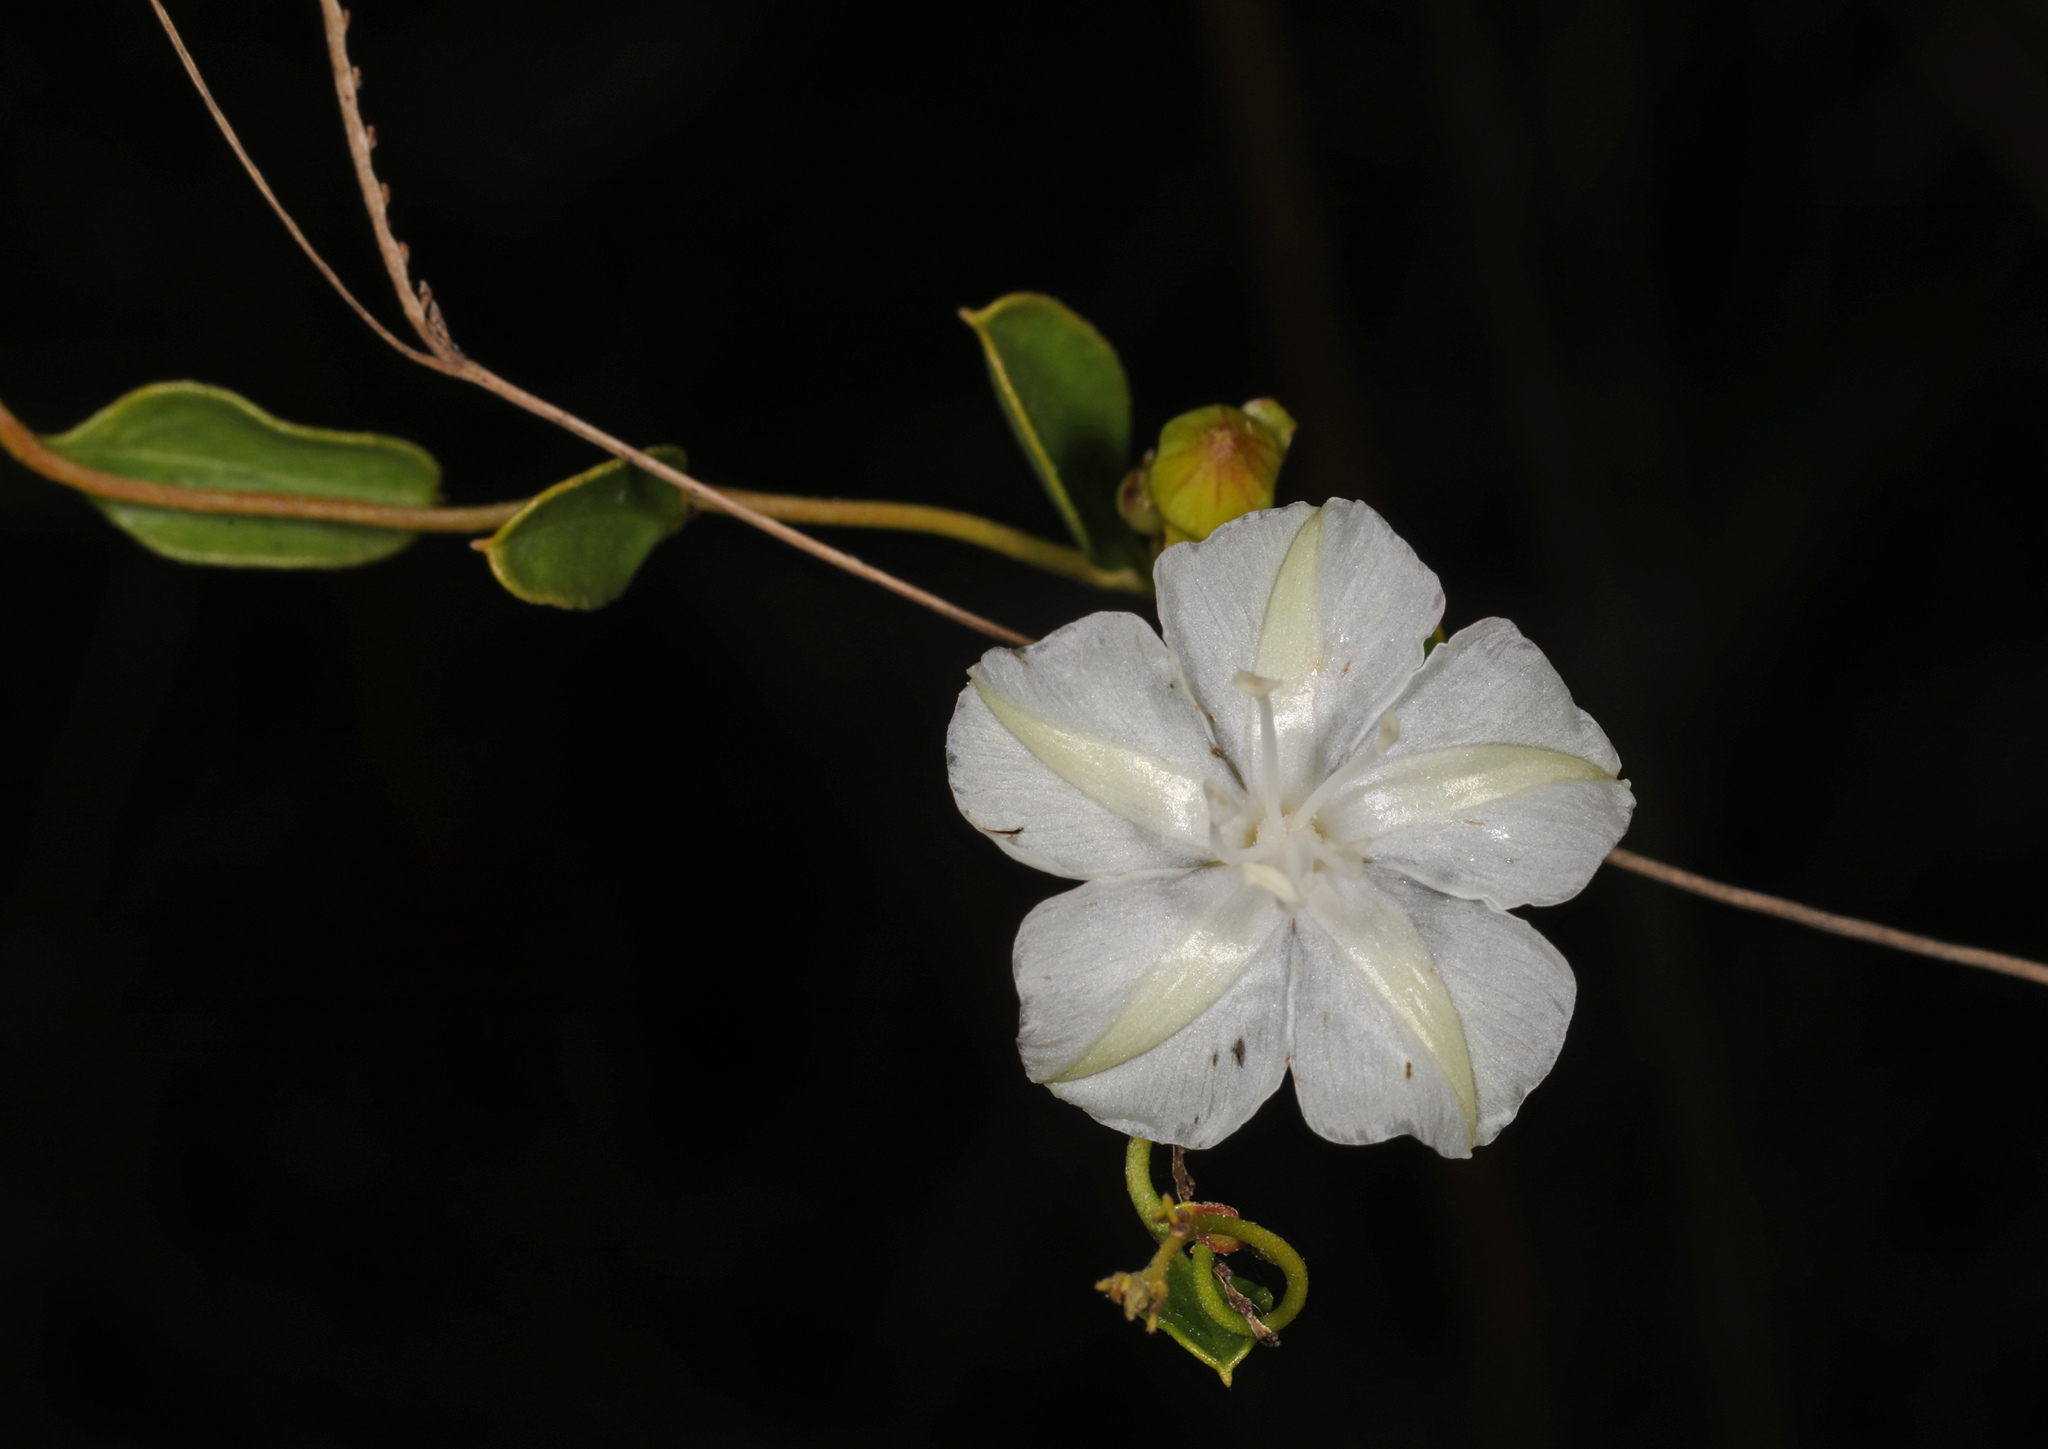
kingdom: Plantae
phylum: Tracheophyta
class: Magnoliopsida
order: Solanales
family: Convolvulaceae
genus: Jacquemontia
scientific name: Jacquemontia curtissii
